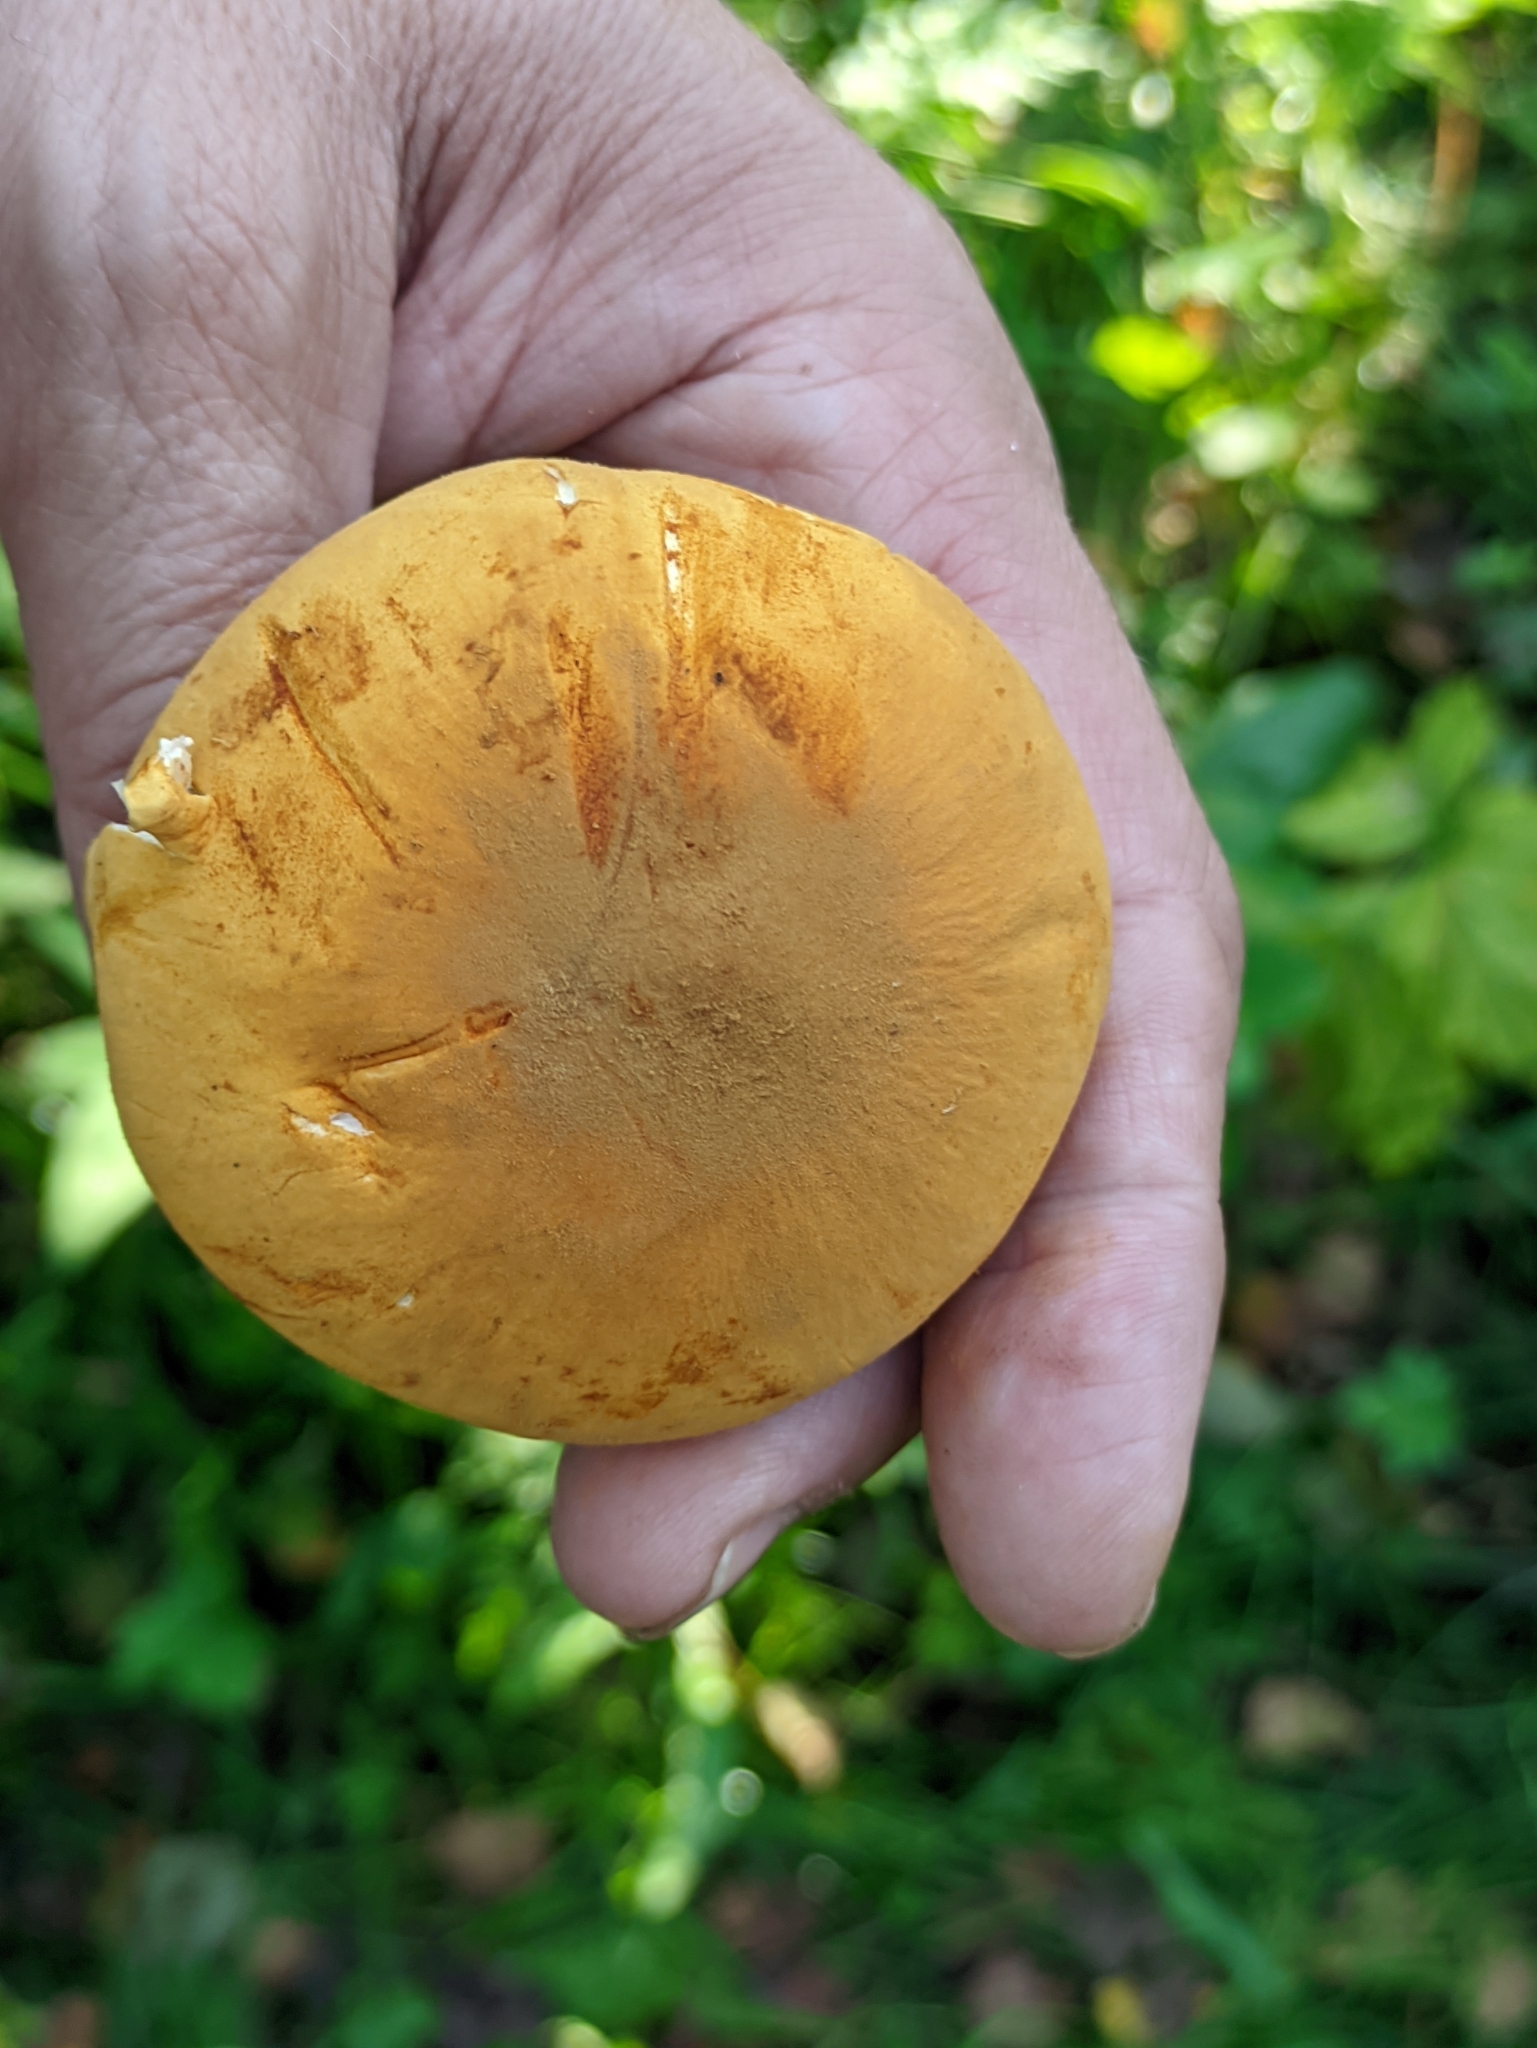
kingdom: Fungi
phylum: Basidiomycota
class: Agaricomycetes
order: Agaricales
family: Tricholomataceae
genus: Phaeolepiota
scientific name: Phaeolepiota aurea
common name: Golden bootleg
